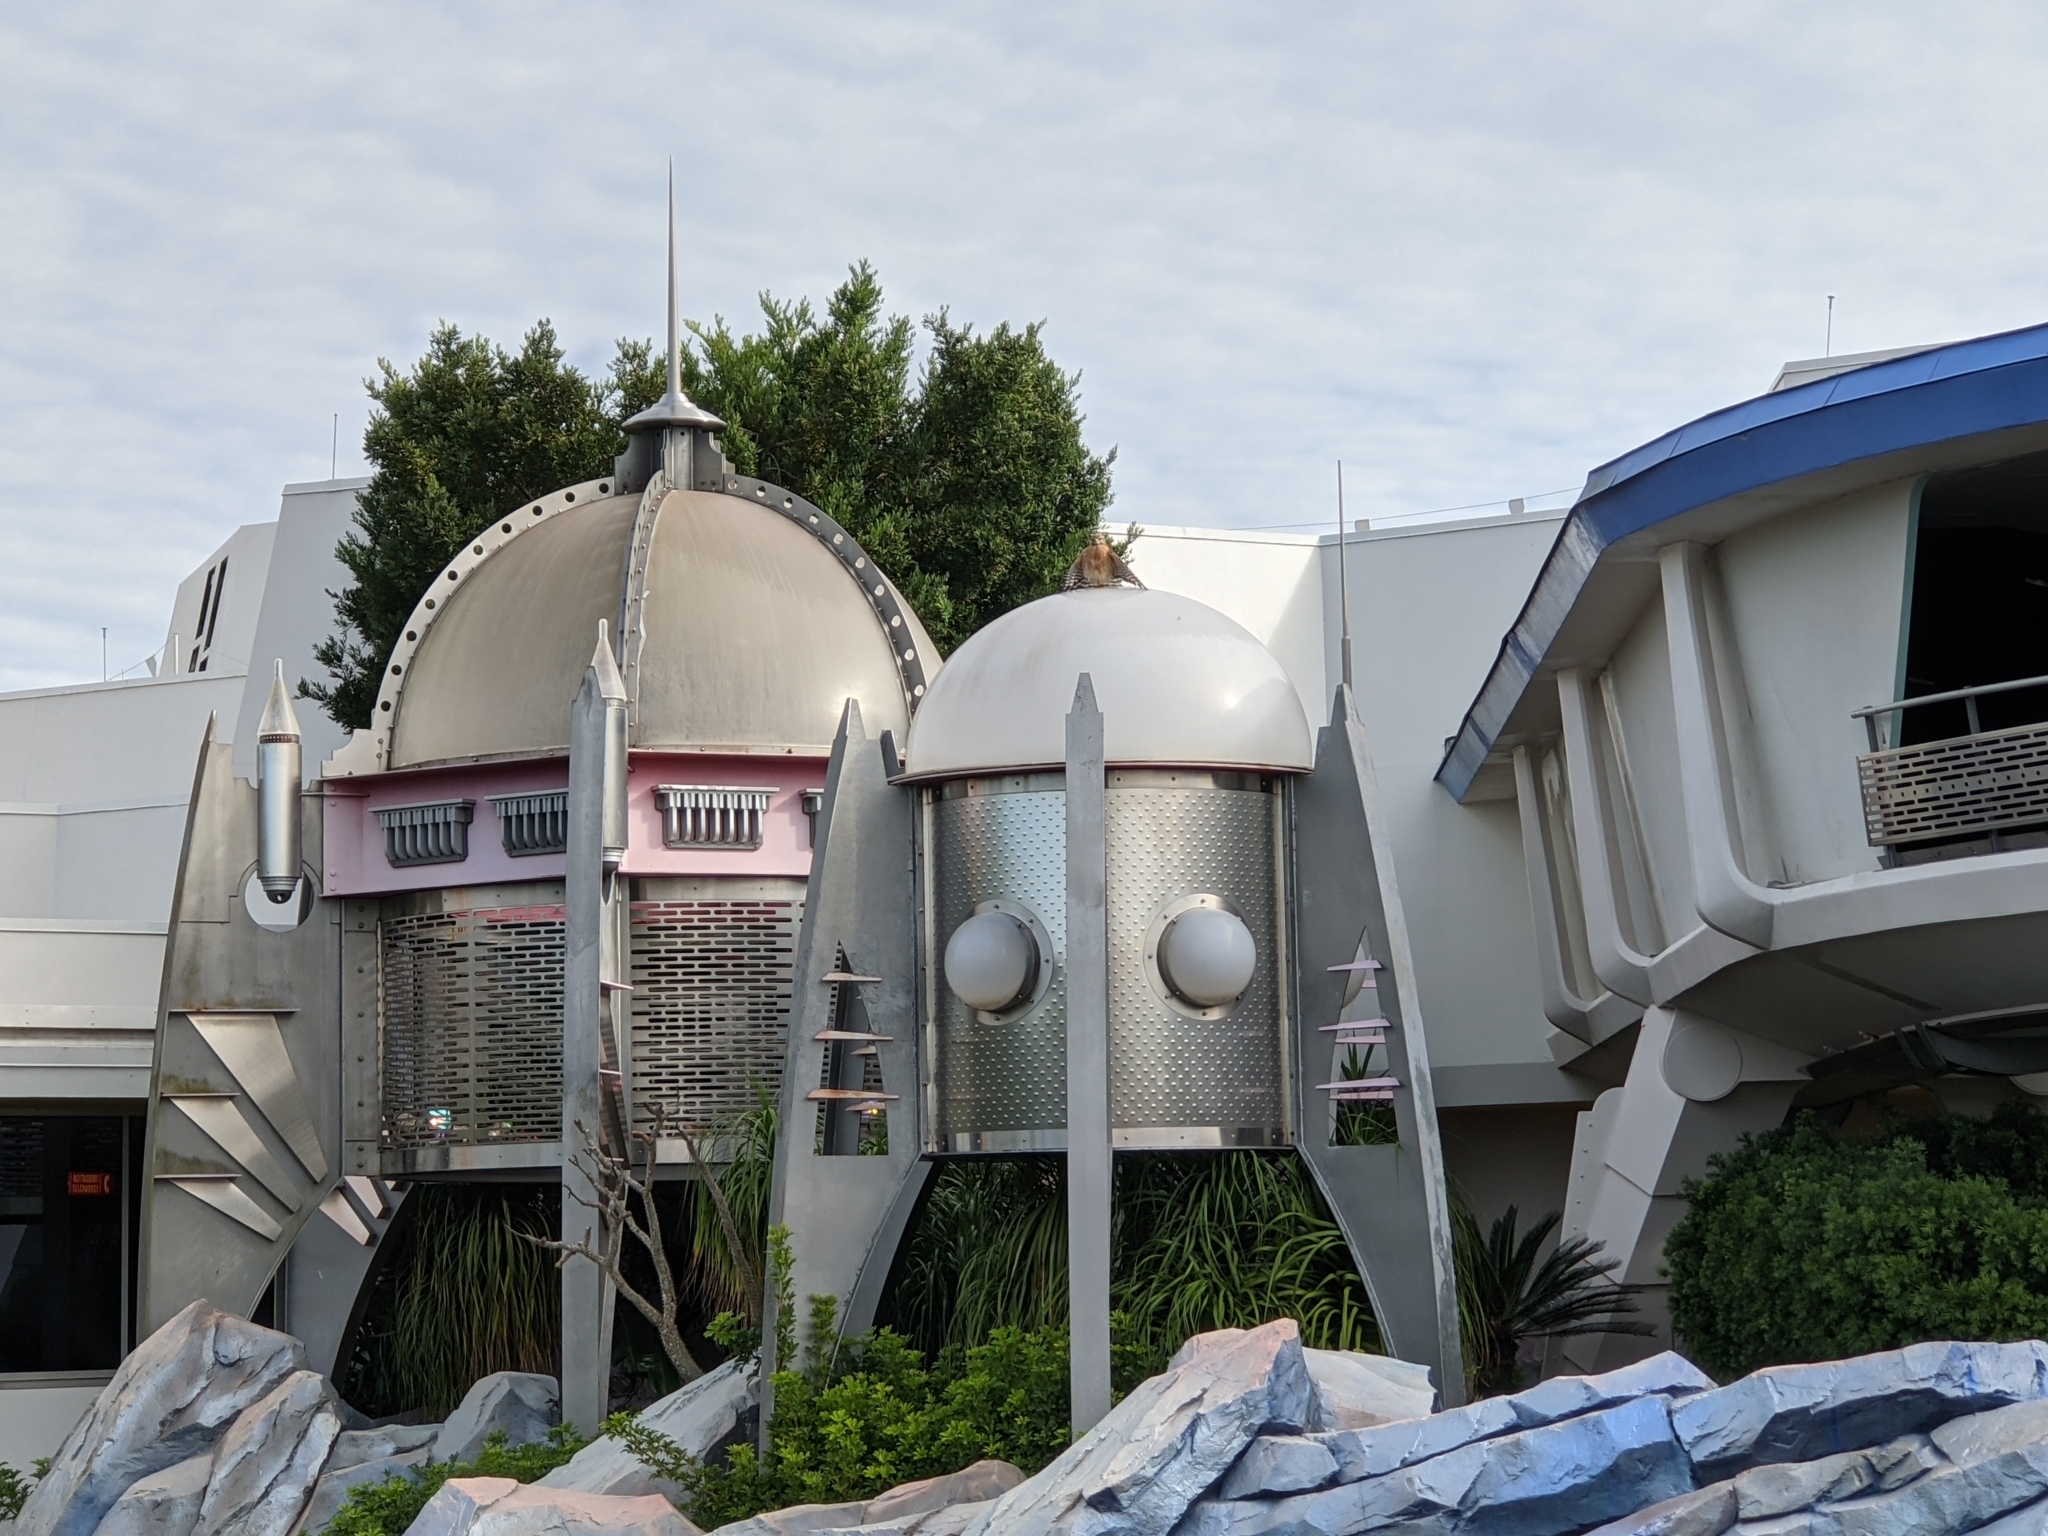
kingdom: Animalia
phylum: Chordata
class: Aves
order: Accipitriformes
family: Accipitridae
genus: Buteo
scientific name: Buteo lineatus
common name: Red-shouldered hawk
